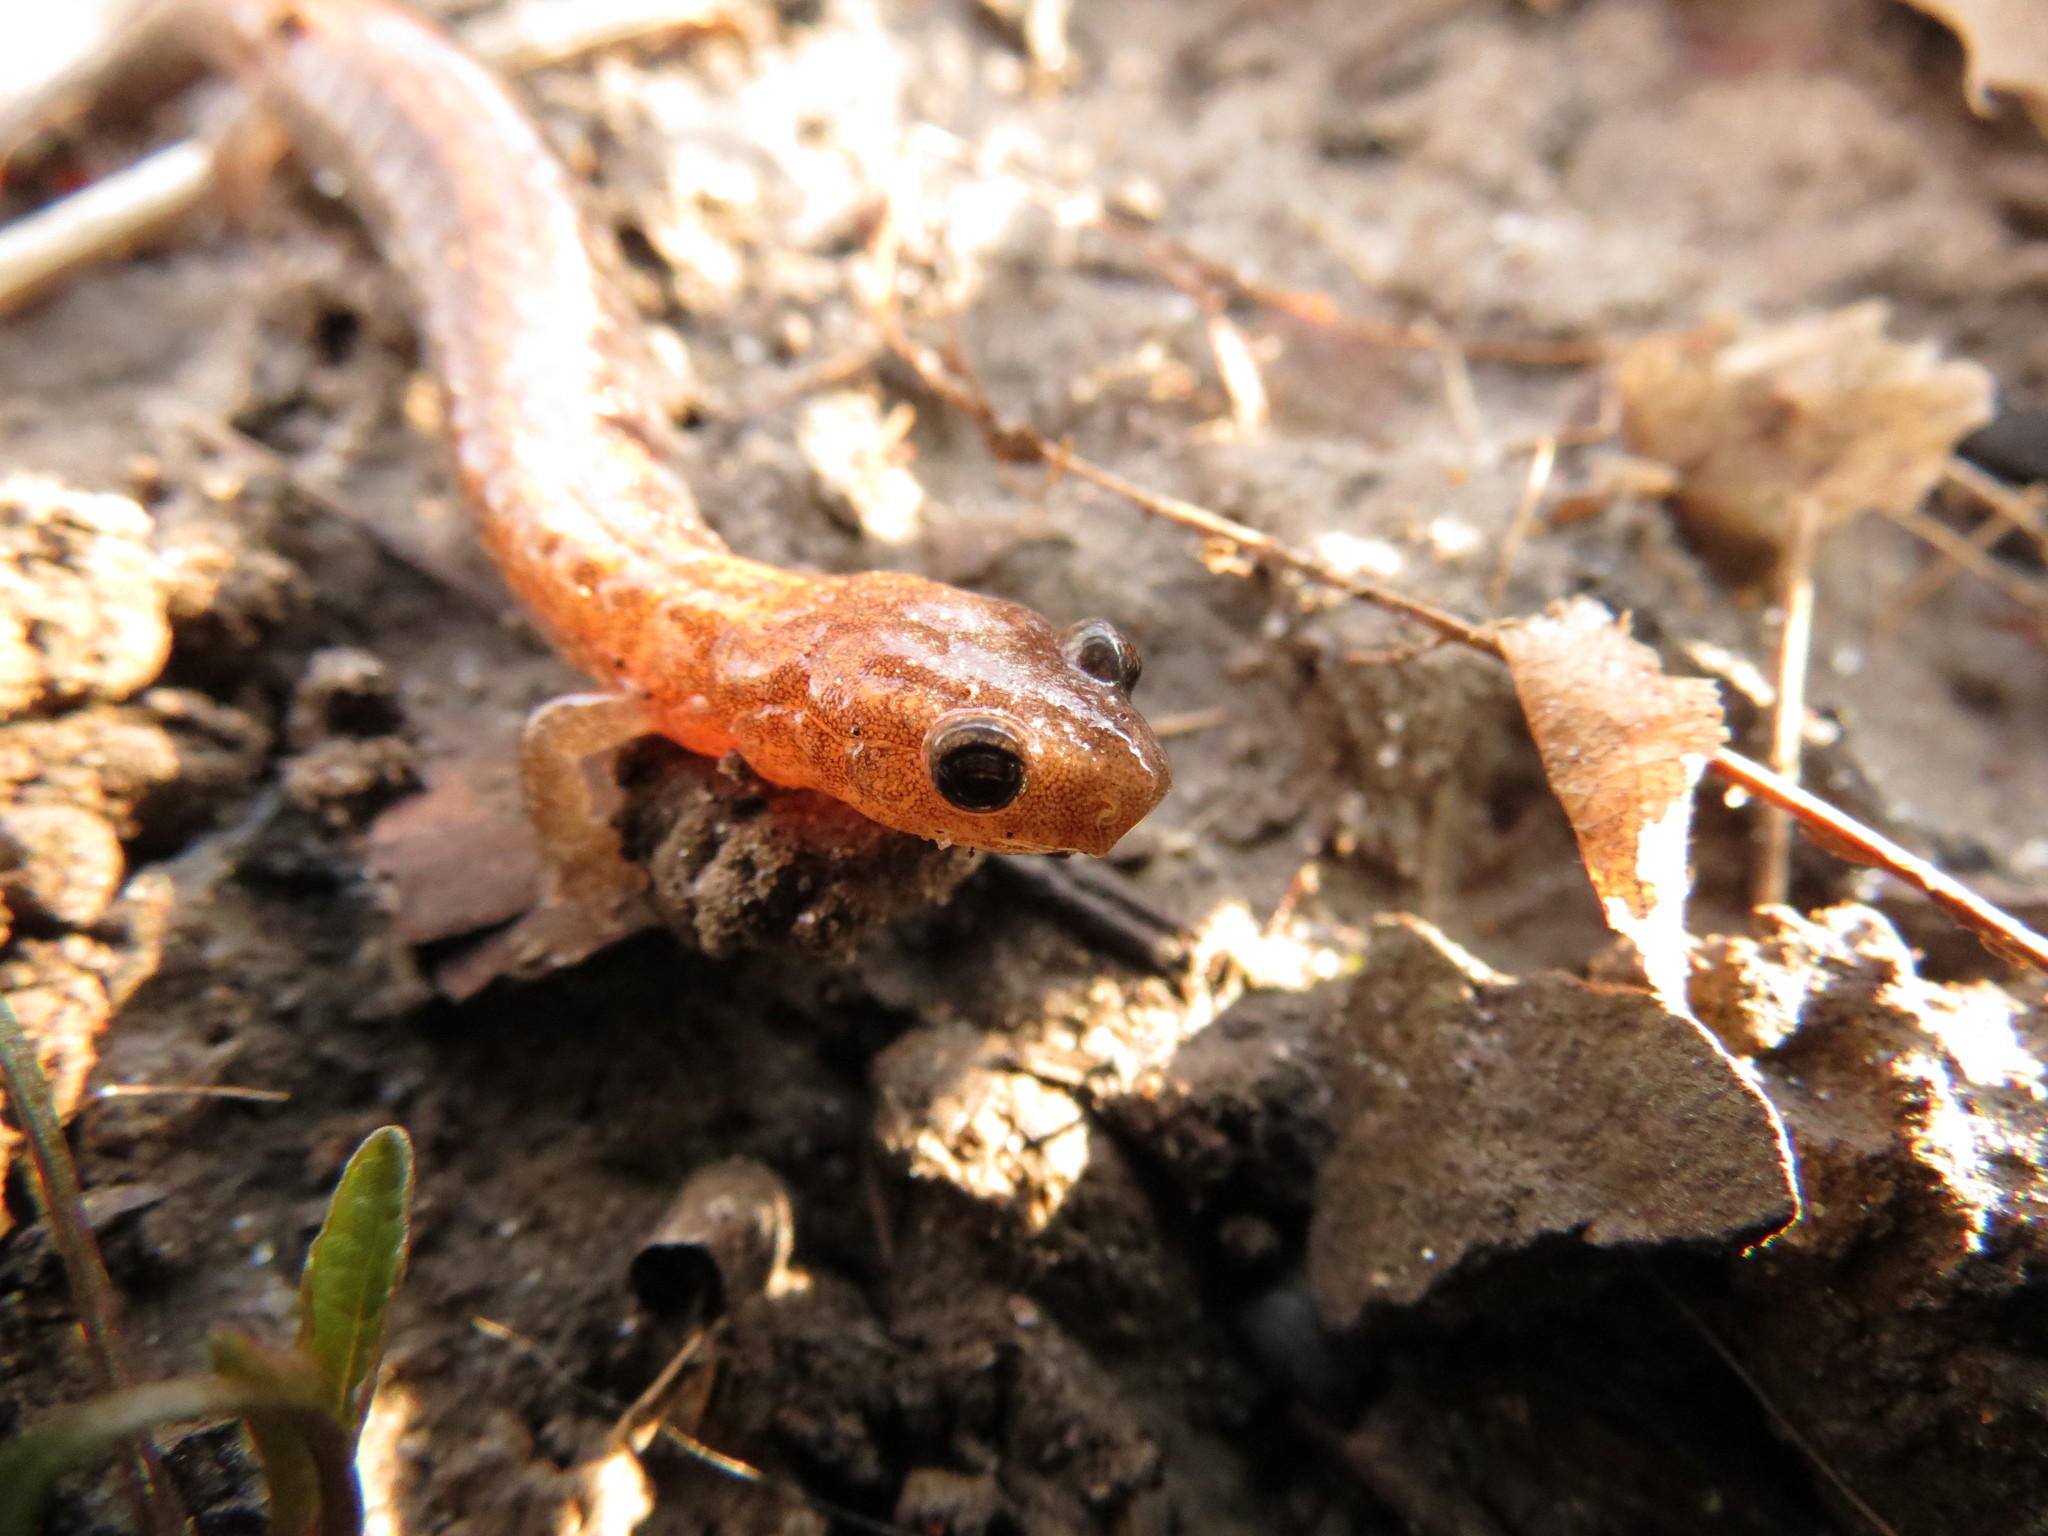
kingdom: Animalia
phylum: Chordata
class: Amphibia
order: Caudata
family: Plethodontidae
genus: Plethodon
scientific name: Plethodon cinereus
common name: Redback salamander
